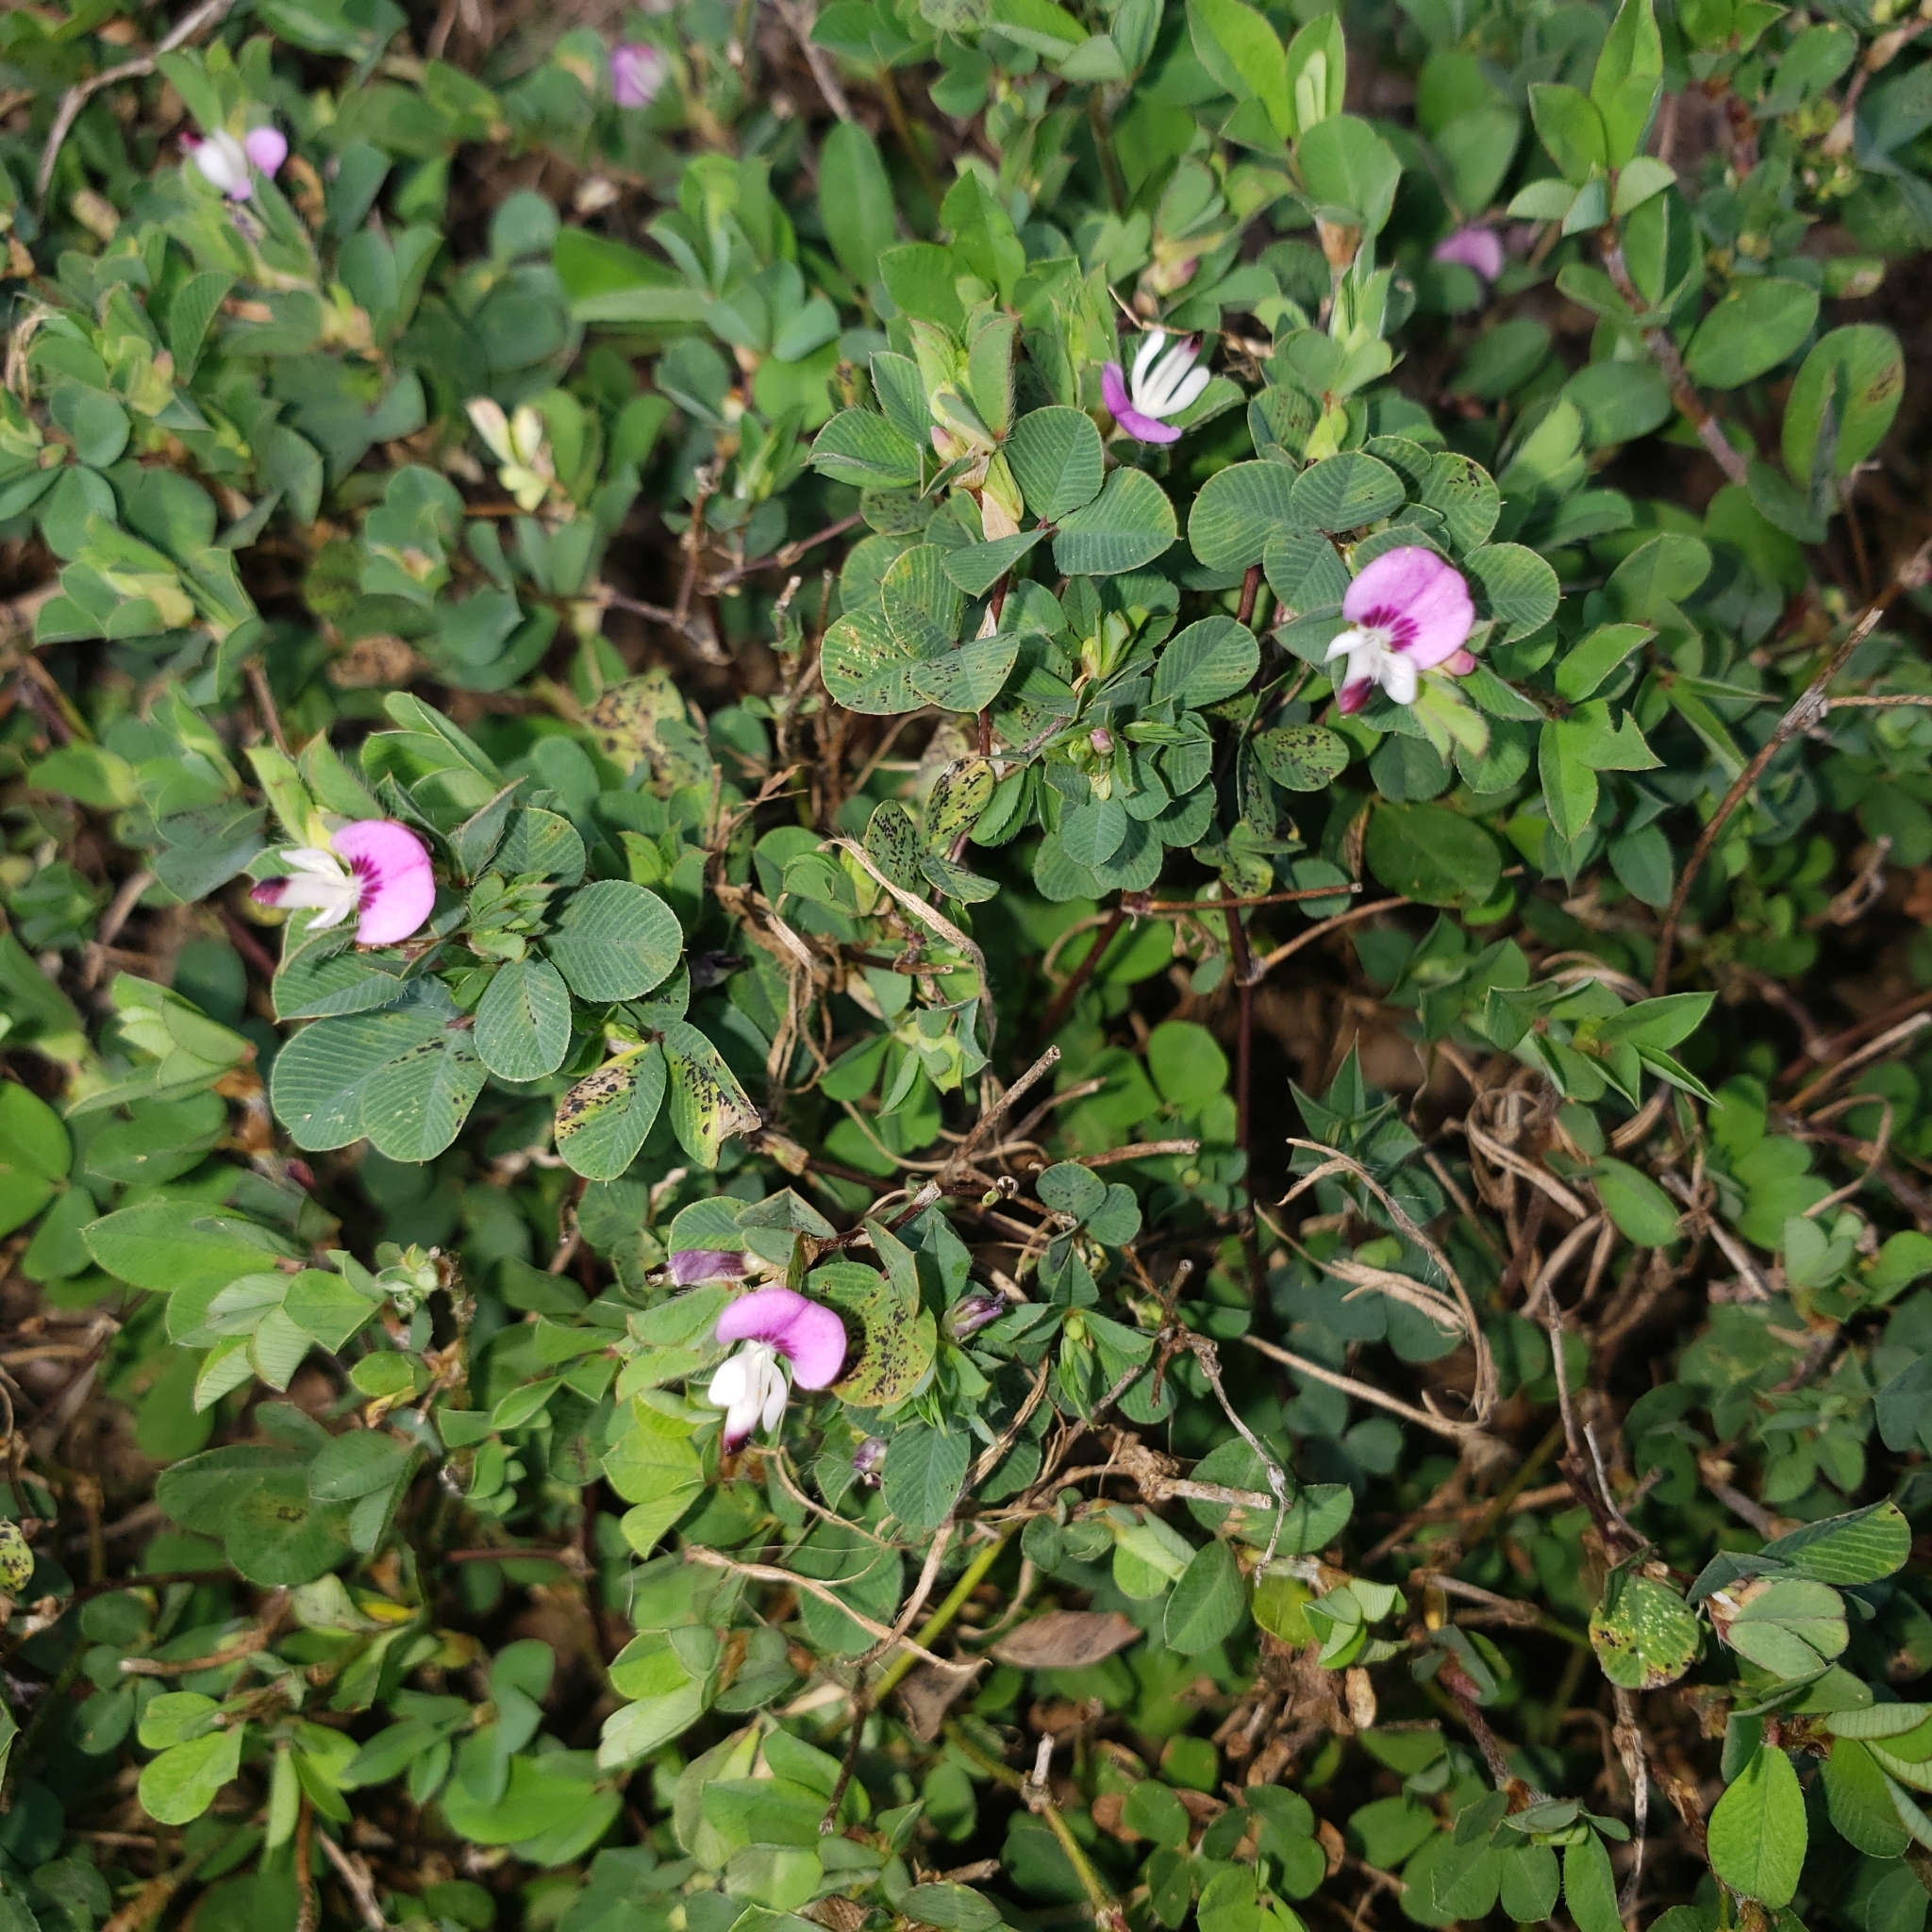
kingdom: Plantae
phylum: Tracheophyta
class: Magnoliopsida
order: Fabales
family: Fabaceae
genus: Kummerowia
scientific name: Kummerowia stipulacea
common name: Korean clover
